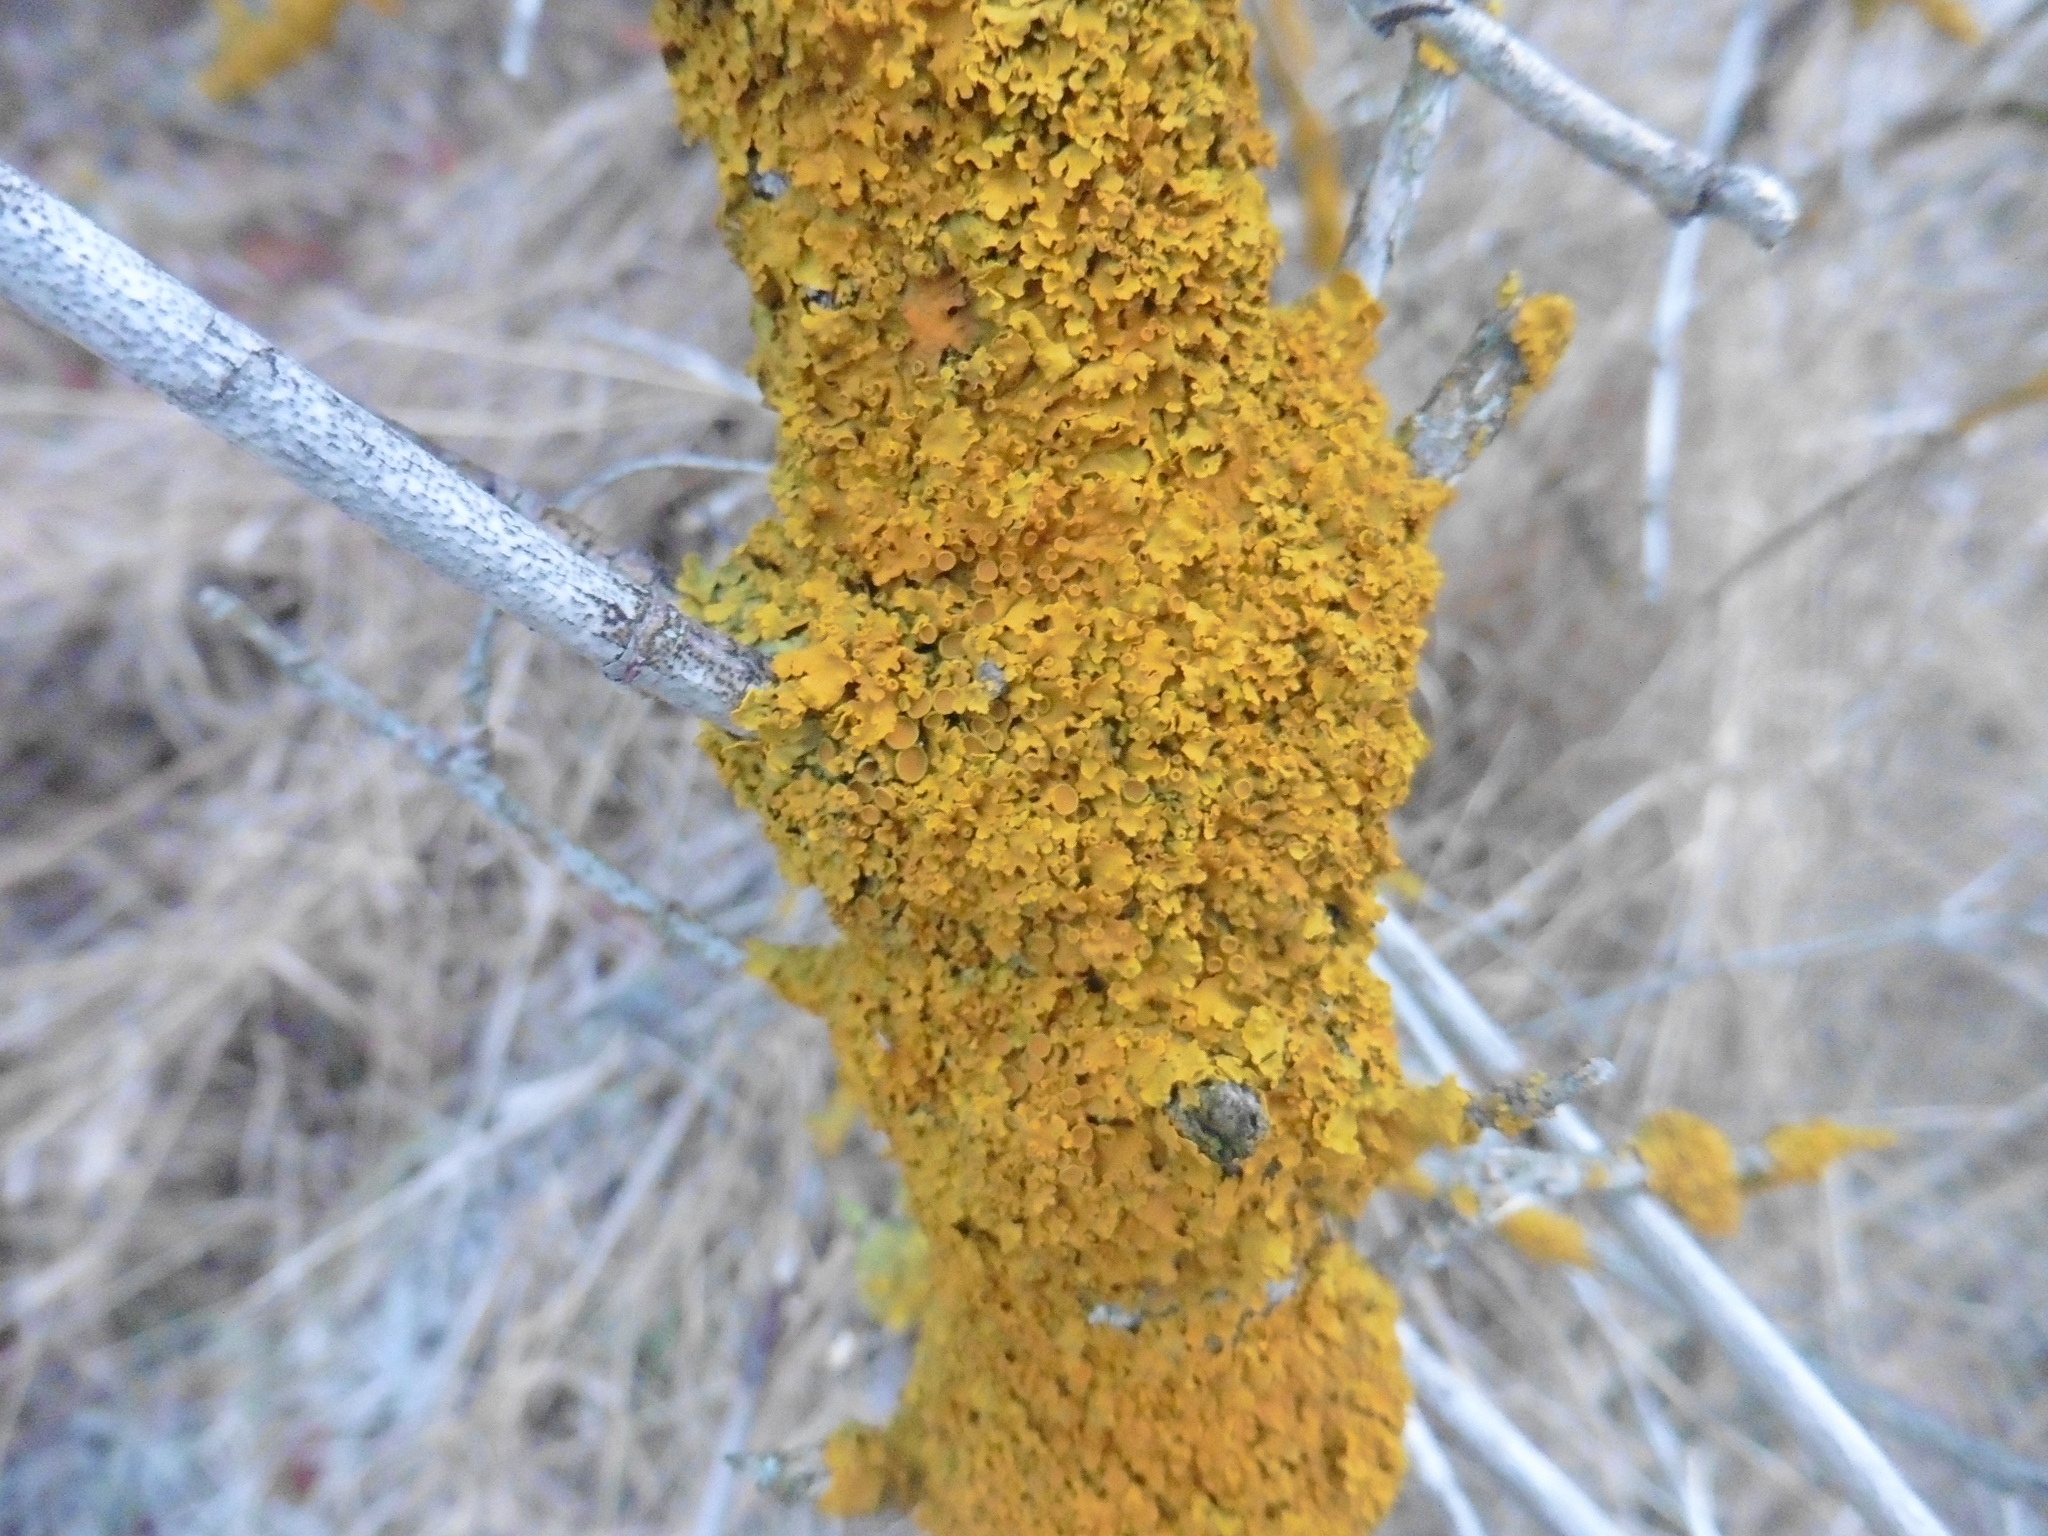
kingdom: Fungi
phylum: Ascomycota
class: Lecanoromycetes
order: Teloschistales
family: Teloschistaceae
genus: Xanthoria
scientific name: Xanthoria parietina
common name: Common orange lichen
